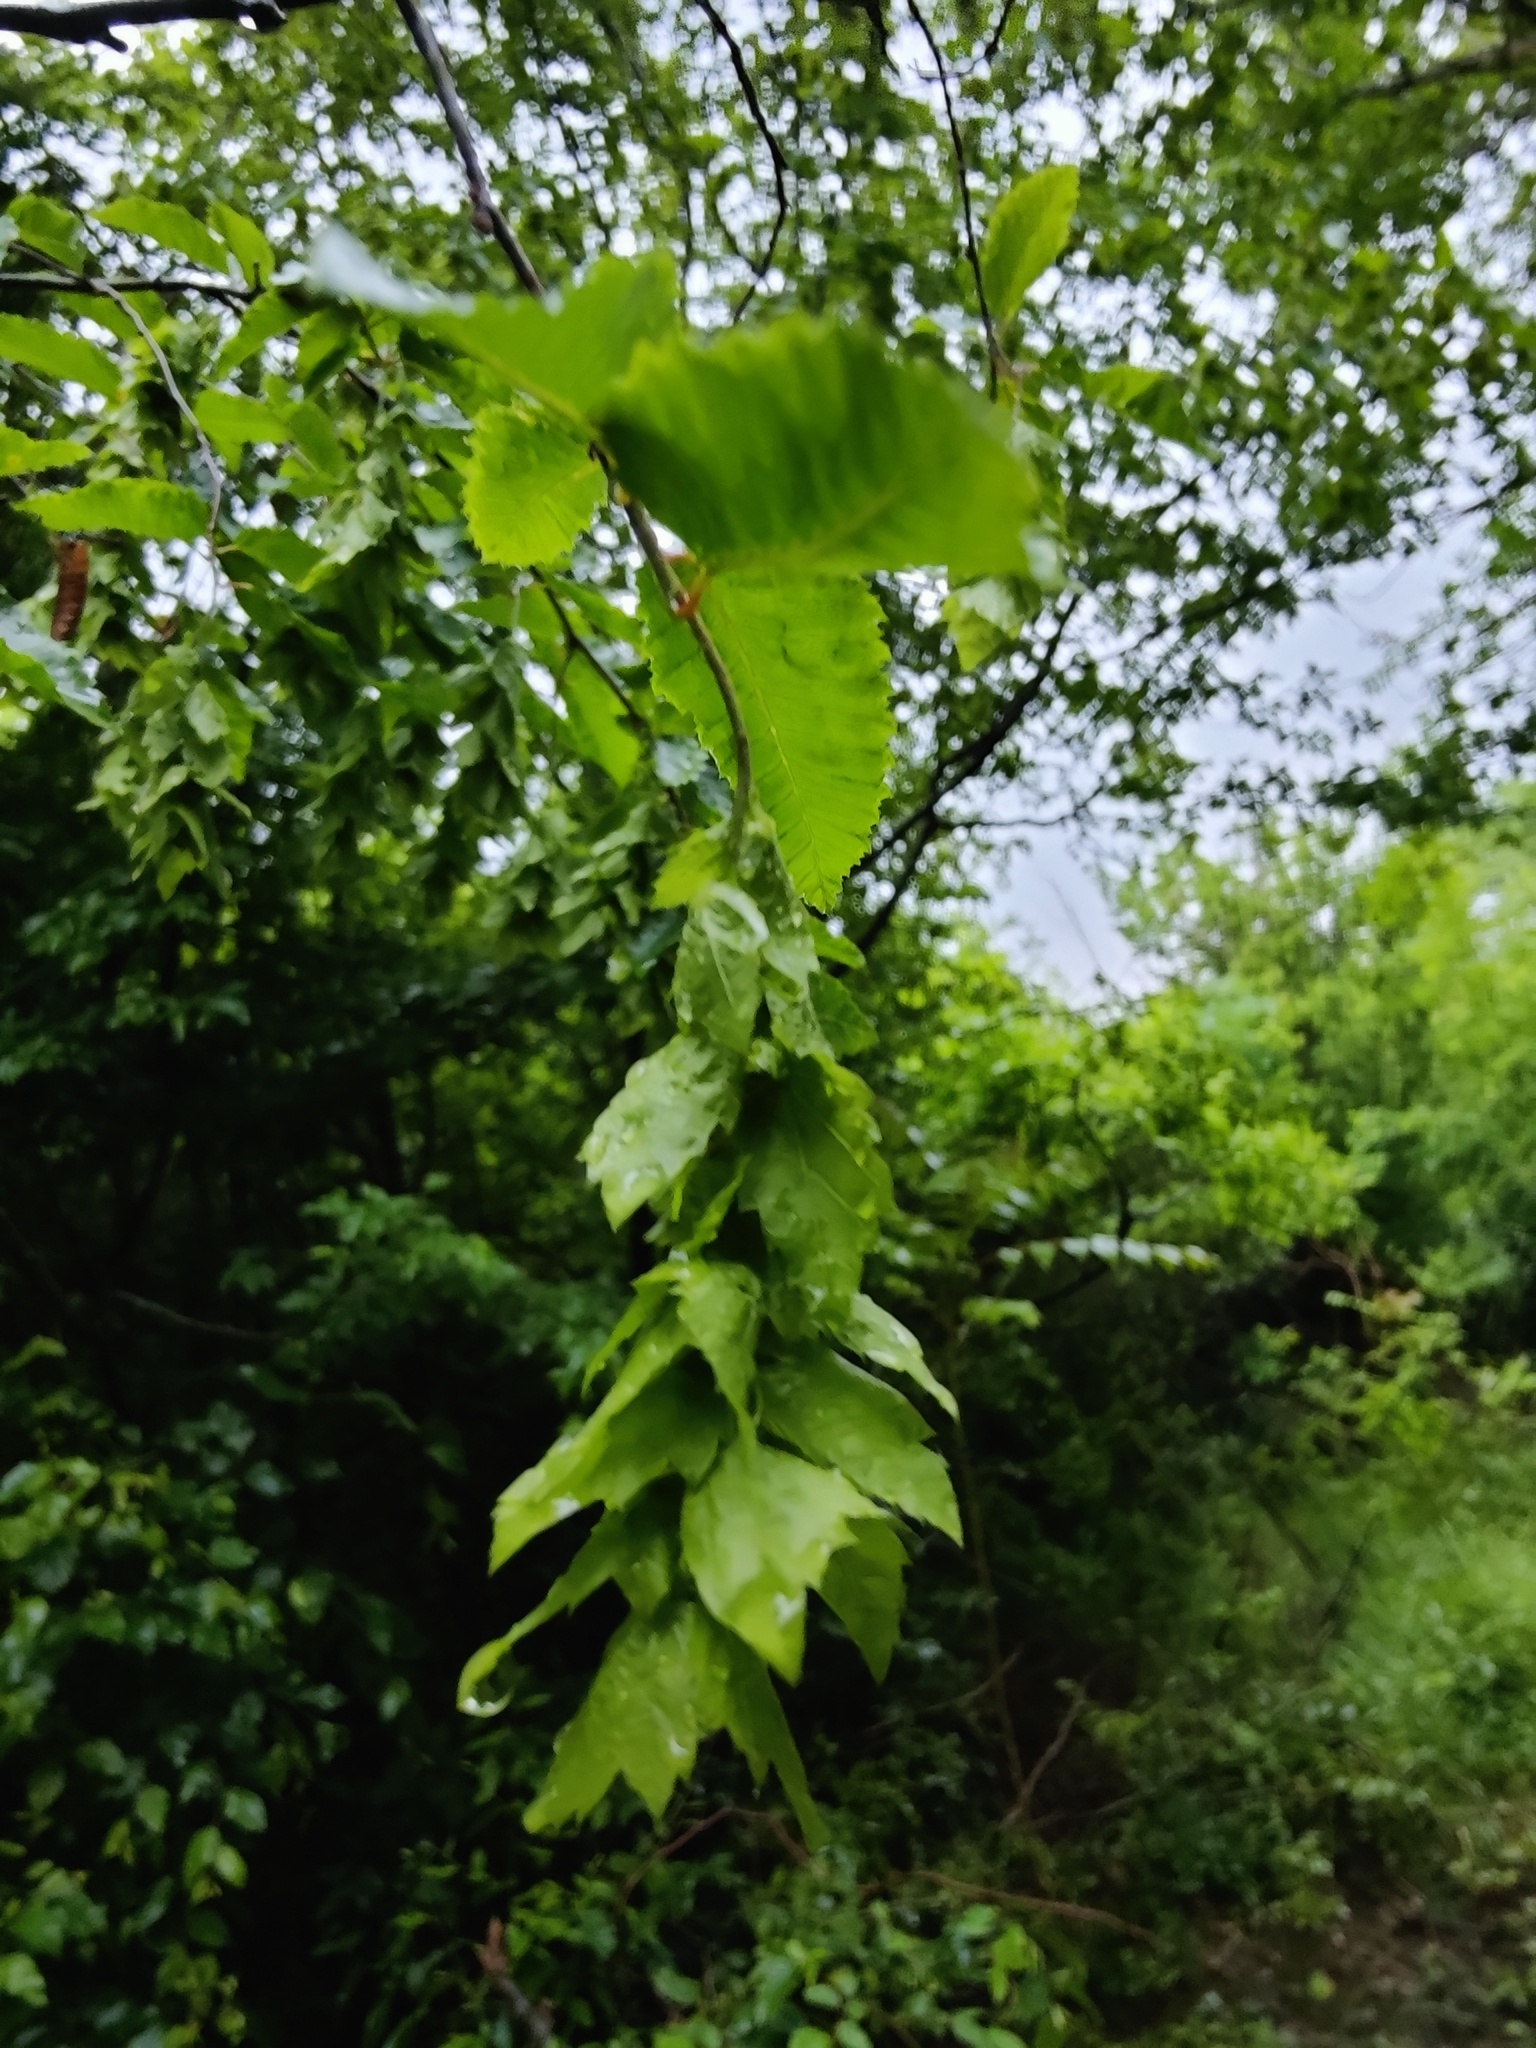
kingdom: Plantae
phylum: Tracheophyta
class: Magnoliopsida
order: Fagales
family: Betulaceae
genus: Carpinus
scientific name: Carpinus orientalis
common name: Eastern hornbeam
